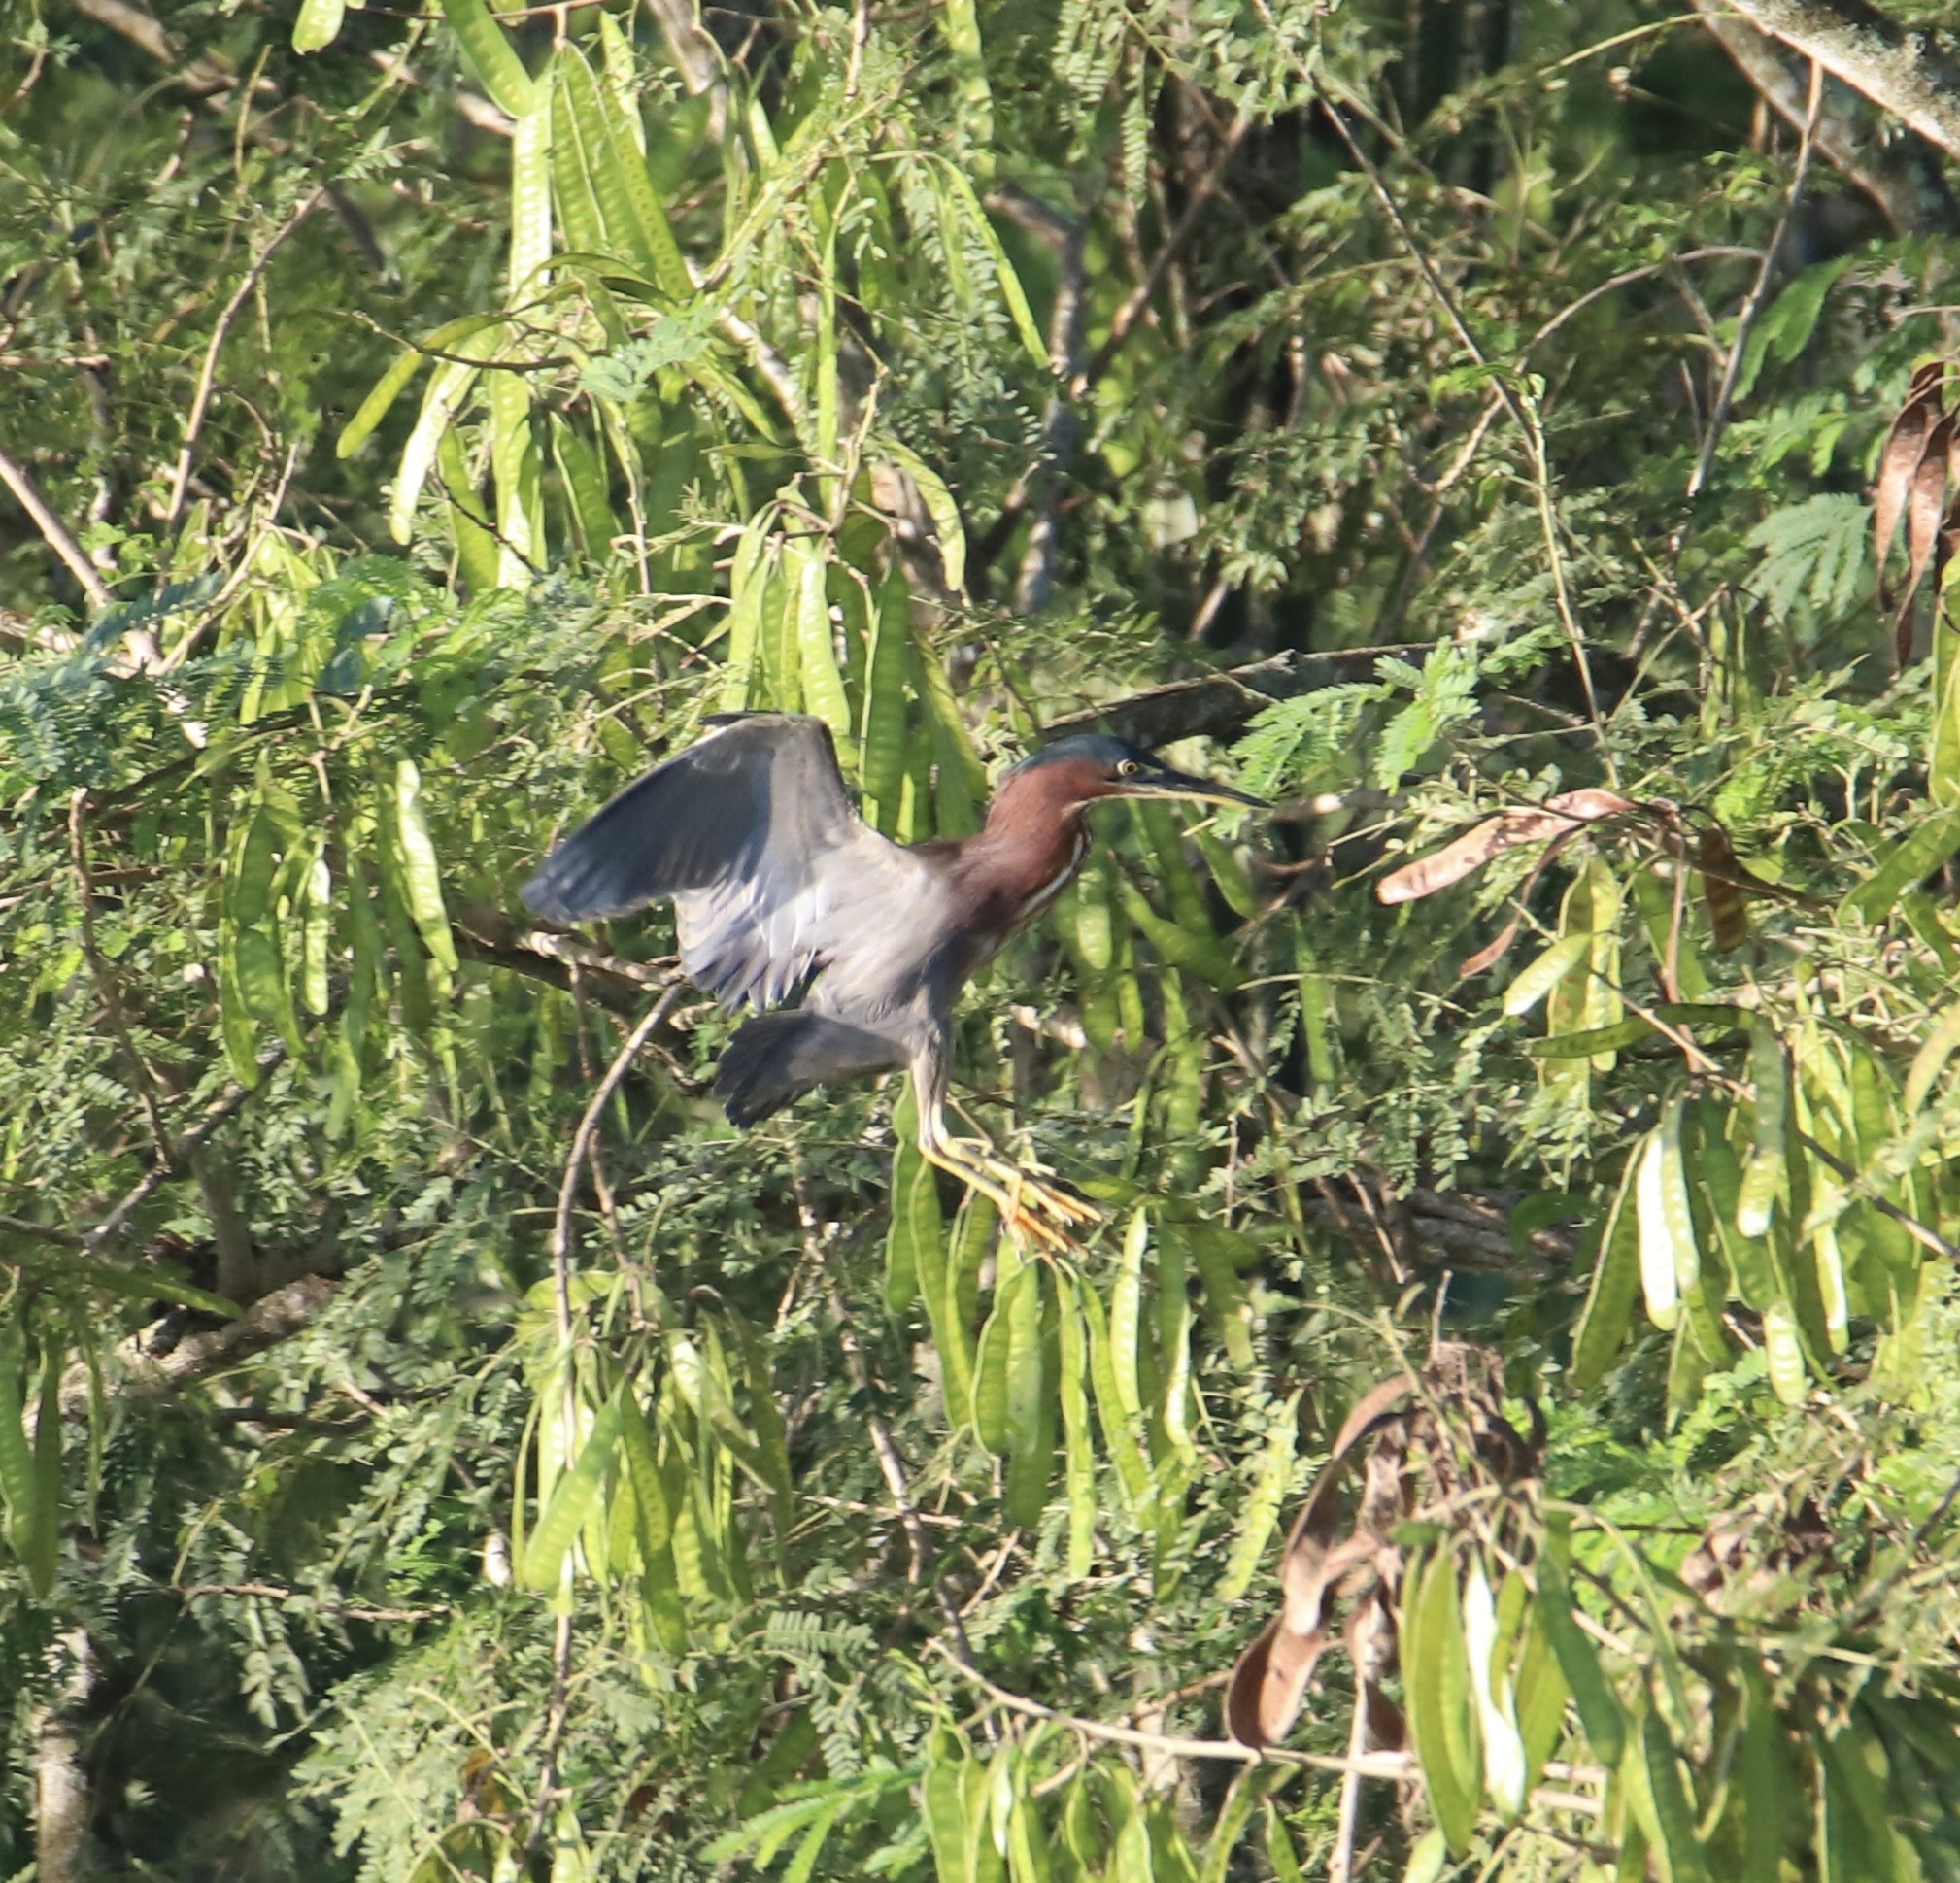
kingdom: Animalia
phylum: Chordata
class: Aves
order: Pelecaniformes
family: Ardeidae
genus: Butorides
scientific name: Butorides virescens
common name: Green heron
